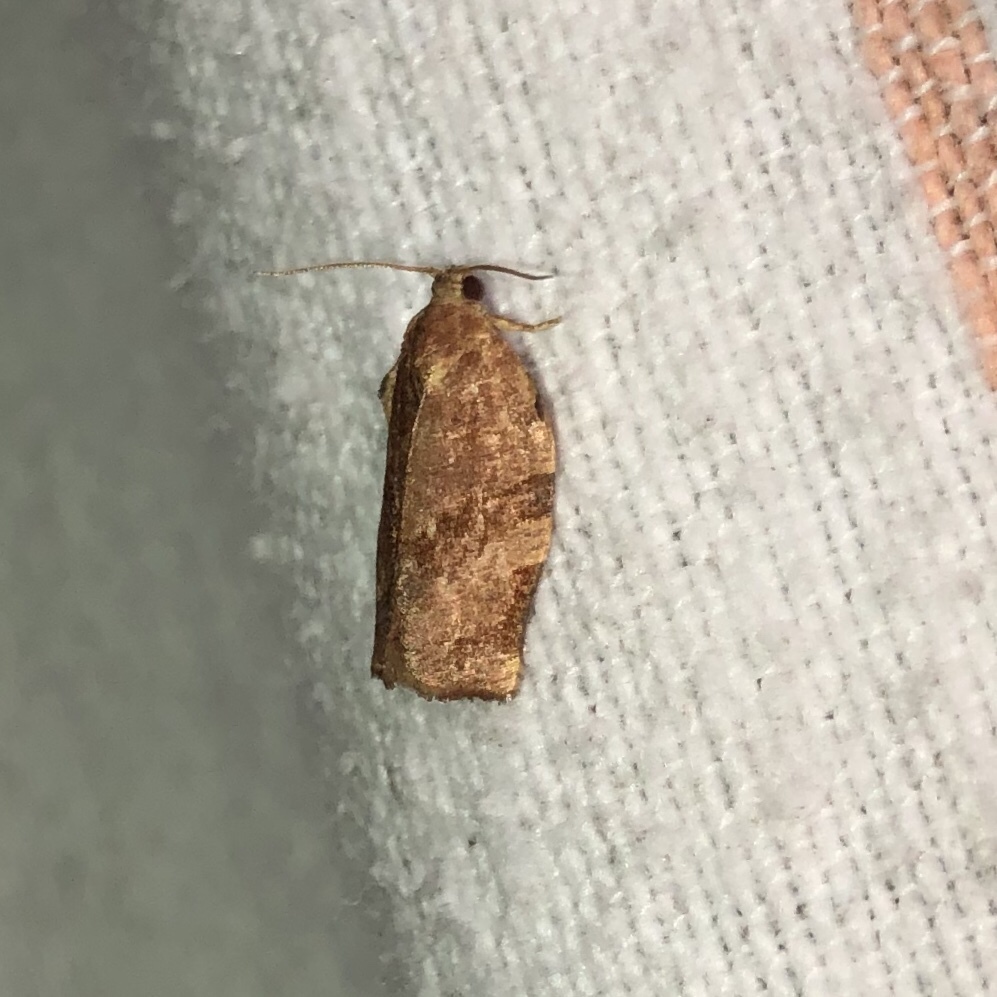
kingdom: Animalia
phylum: Arthropoda
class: Insecta
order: Lepidoptera
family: Tortricidae
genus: Choristoneura
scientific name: Choristoneura rosaceana
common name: Oblique-banded leafroller moth
